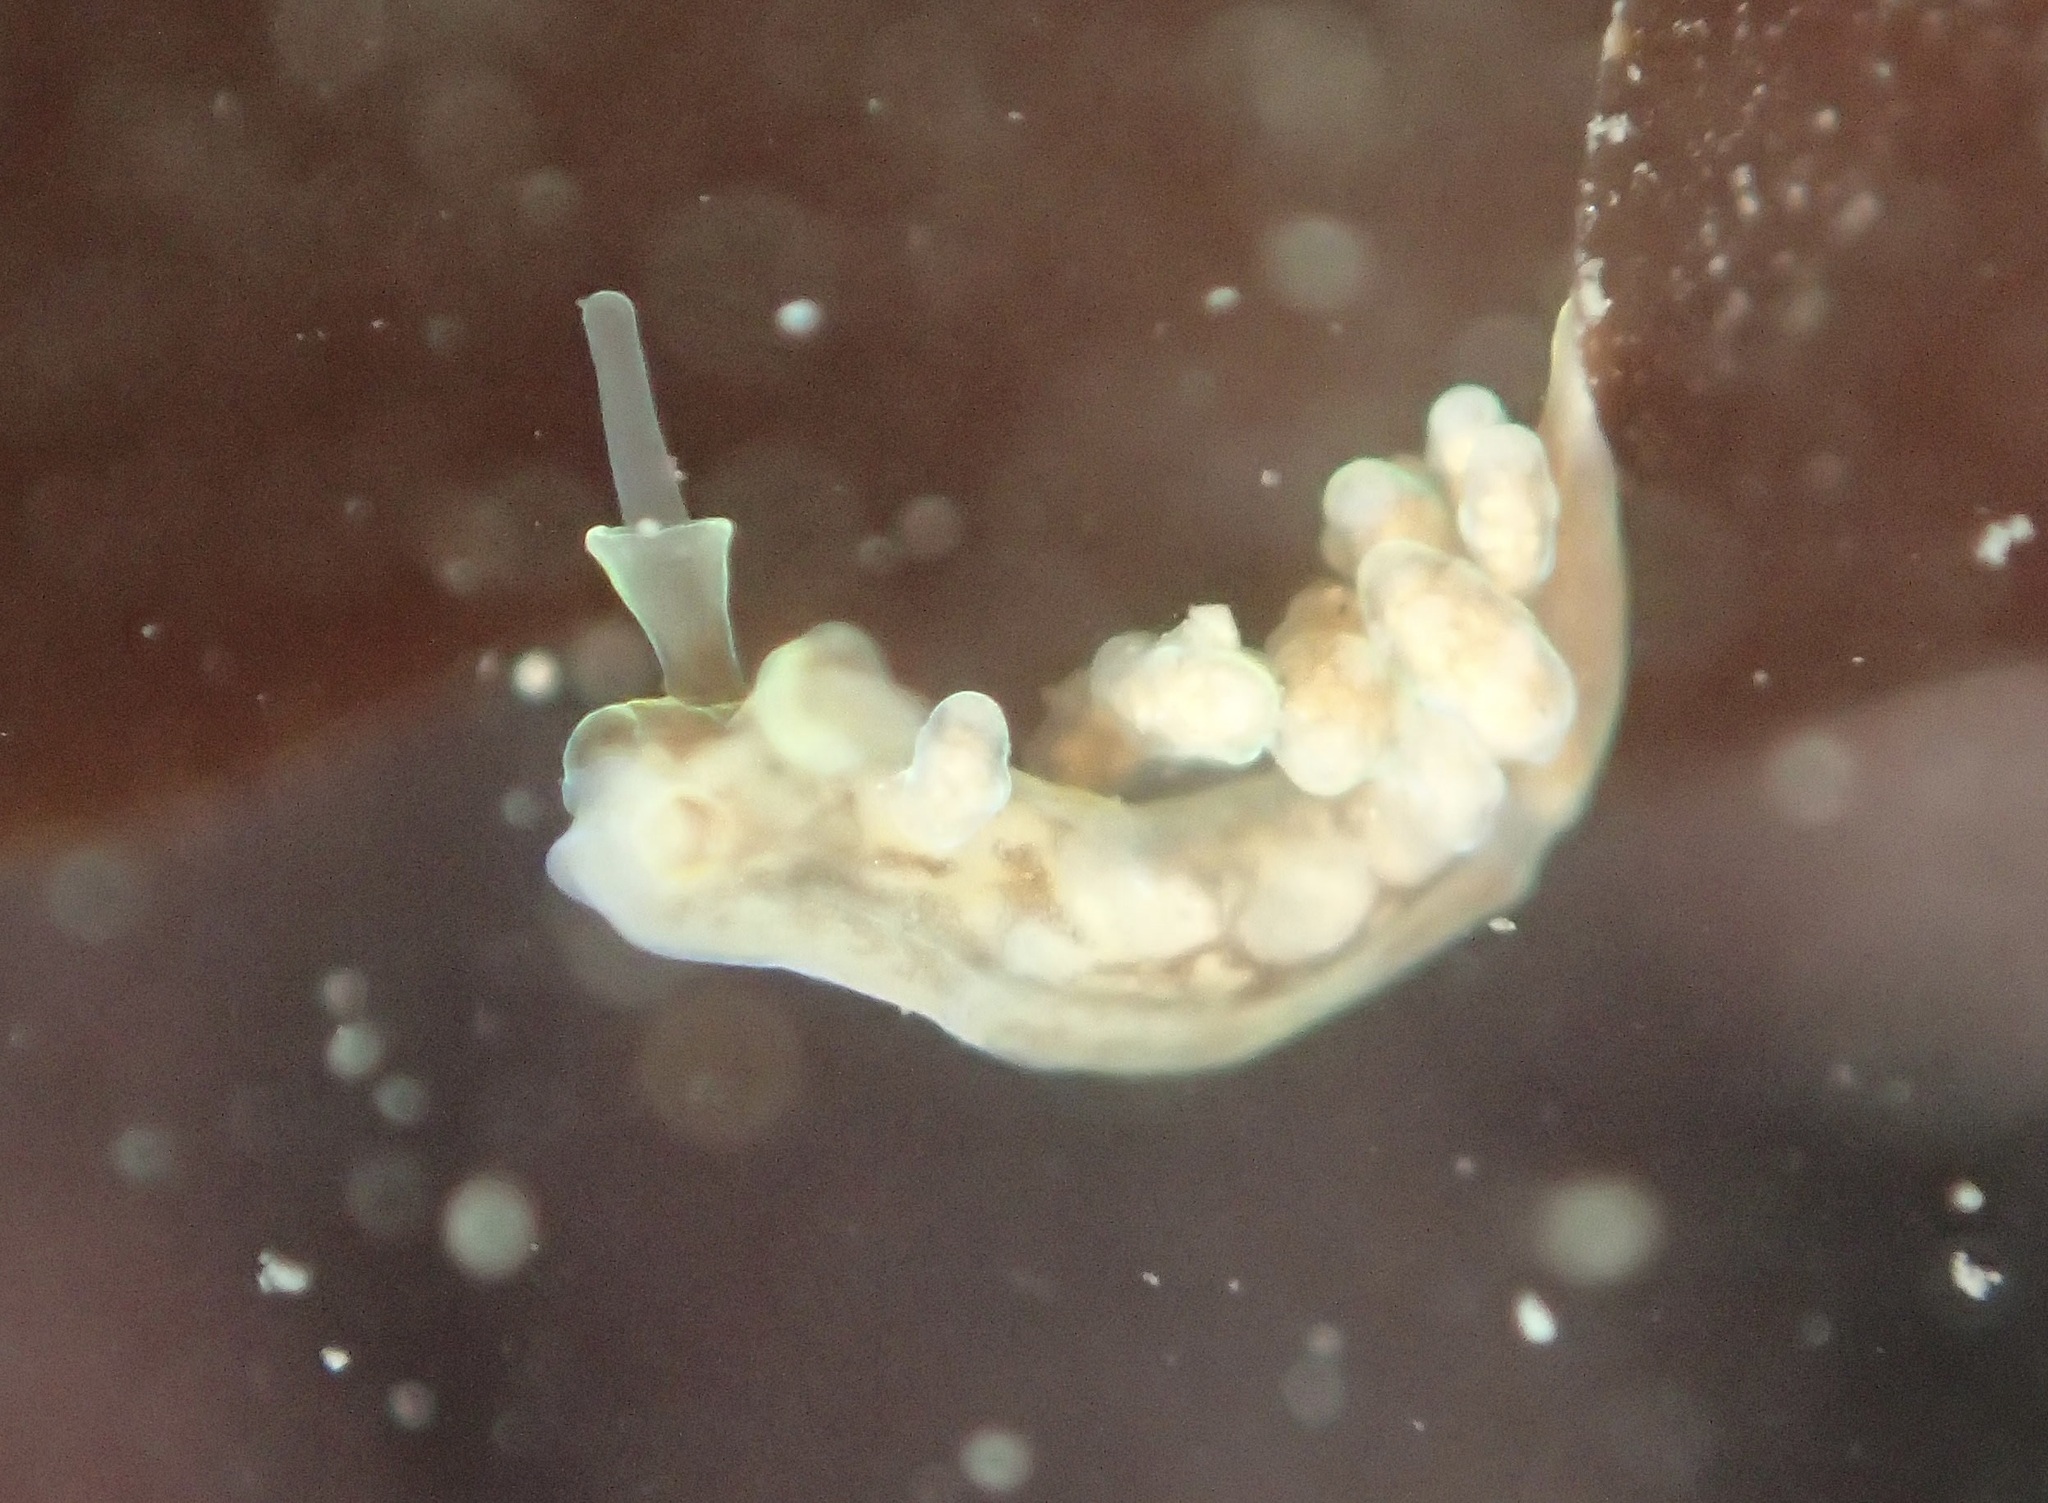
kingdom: Animalia
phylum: Mollusca
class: Gastropoda
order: Nudibranchia
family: Dotidae
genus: Doto
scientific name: Doto columbiana
